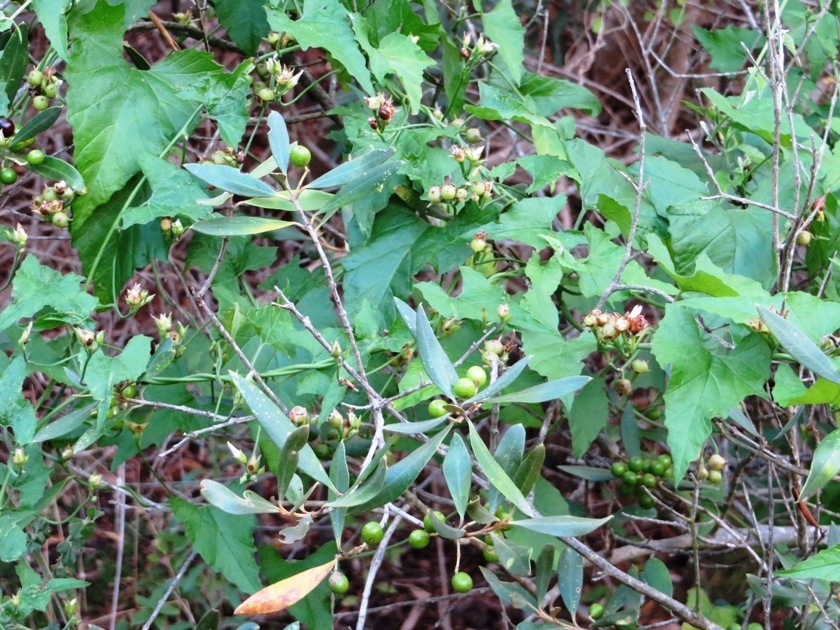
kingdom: Plantae
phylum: Tracheophyta
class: Magnoliopsida
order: Solanales
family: Convolvulaceae
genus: Convolvulus
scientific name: Convolvulus farinosus
